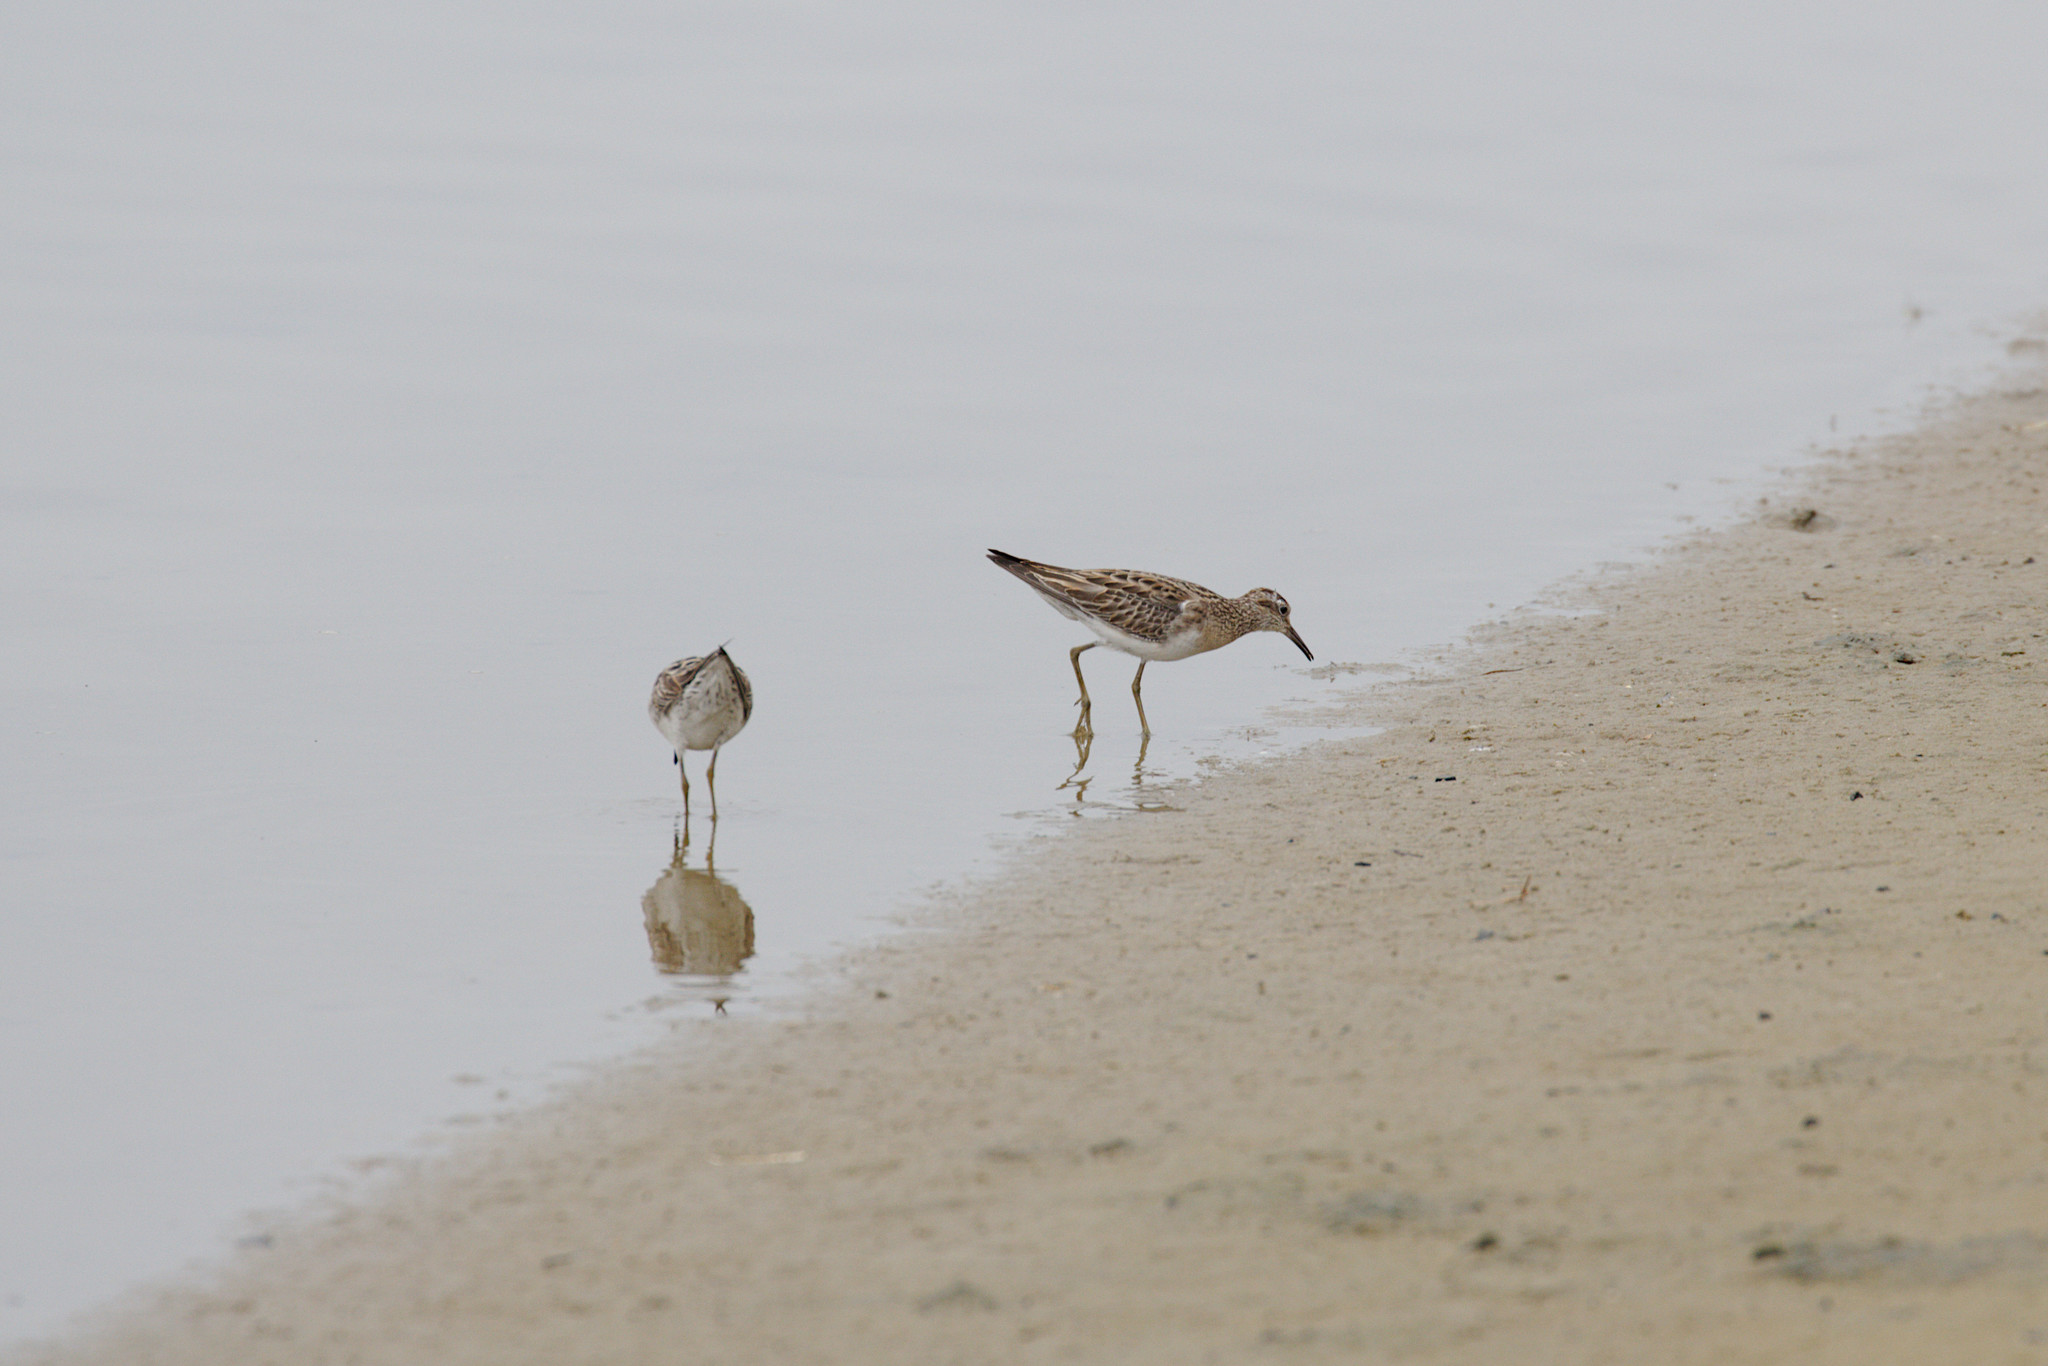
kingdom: Animalia
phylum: Chordata
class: Aves
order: Charadriiformes
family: Scolopacidae
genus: Calidris
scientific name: Calidris acuminata
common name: Sharp-tailed sandpiper
